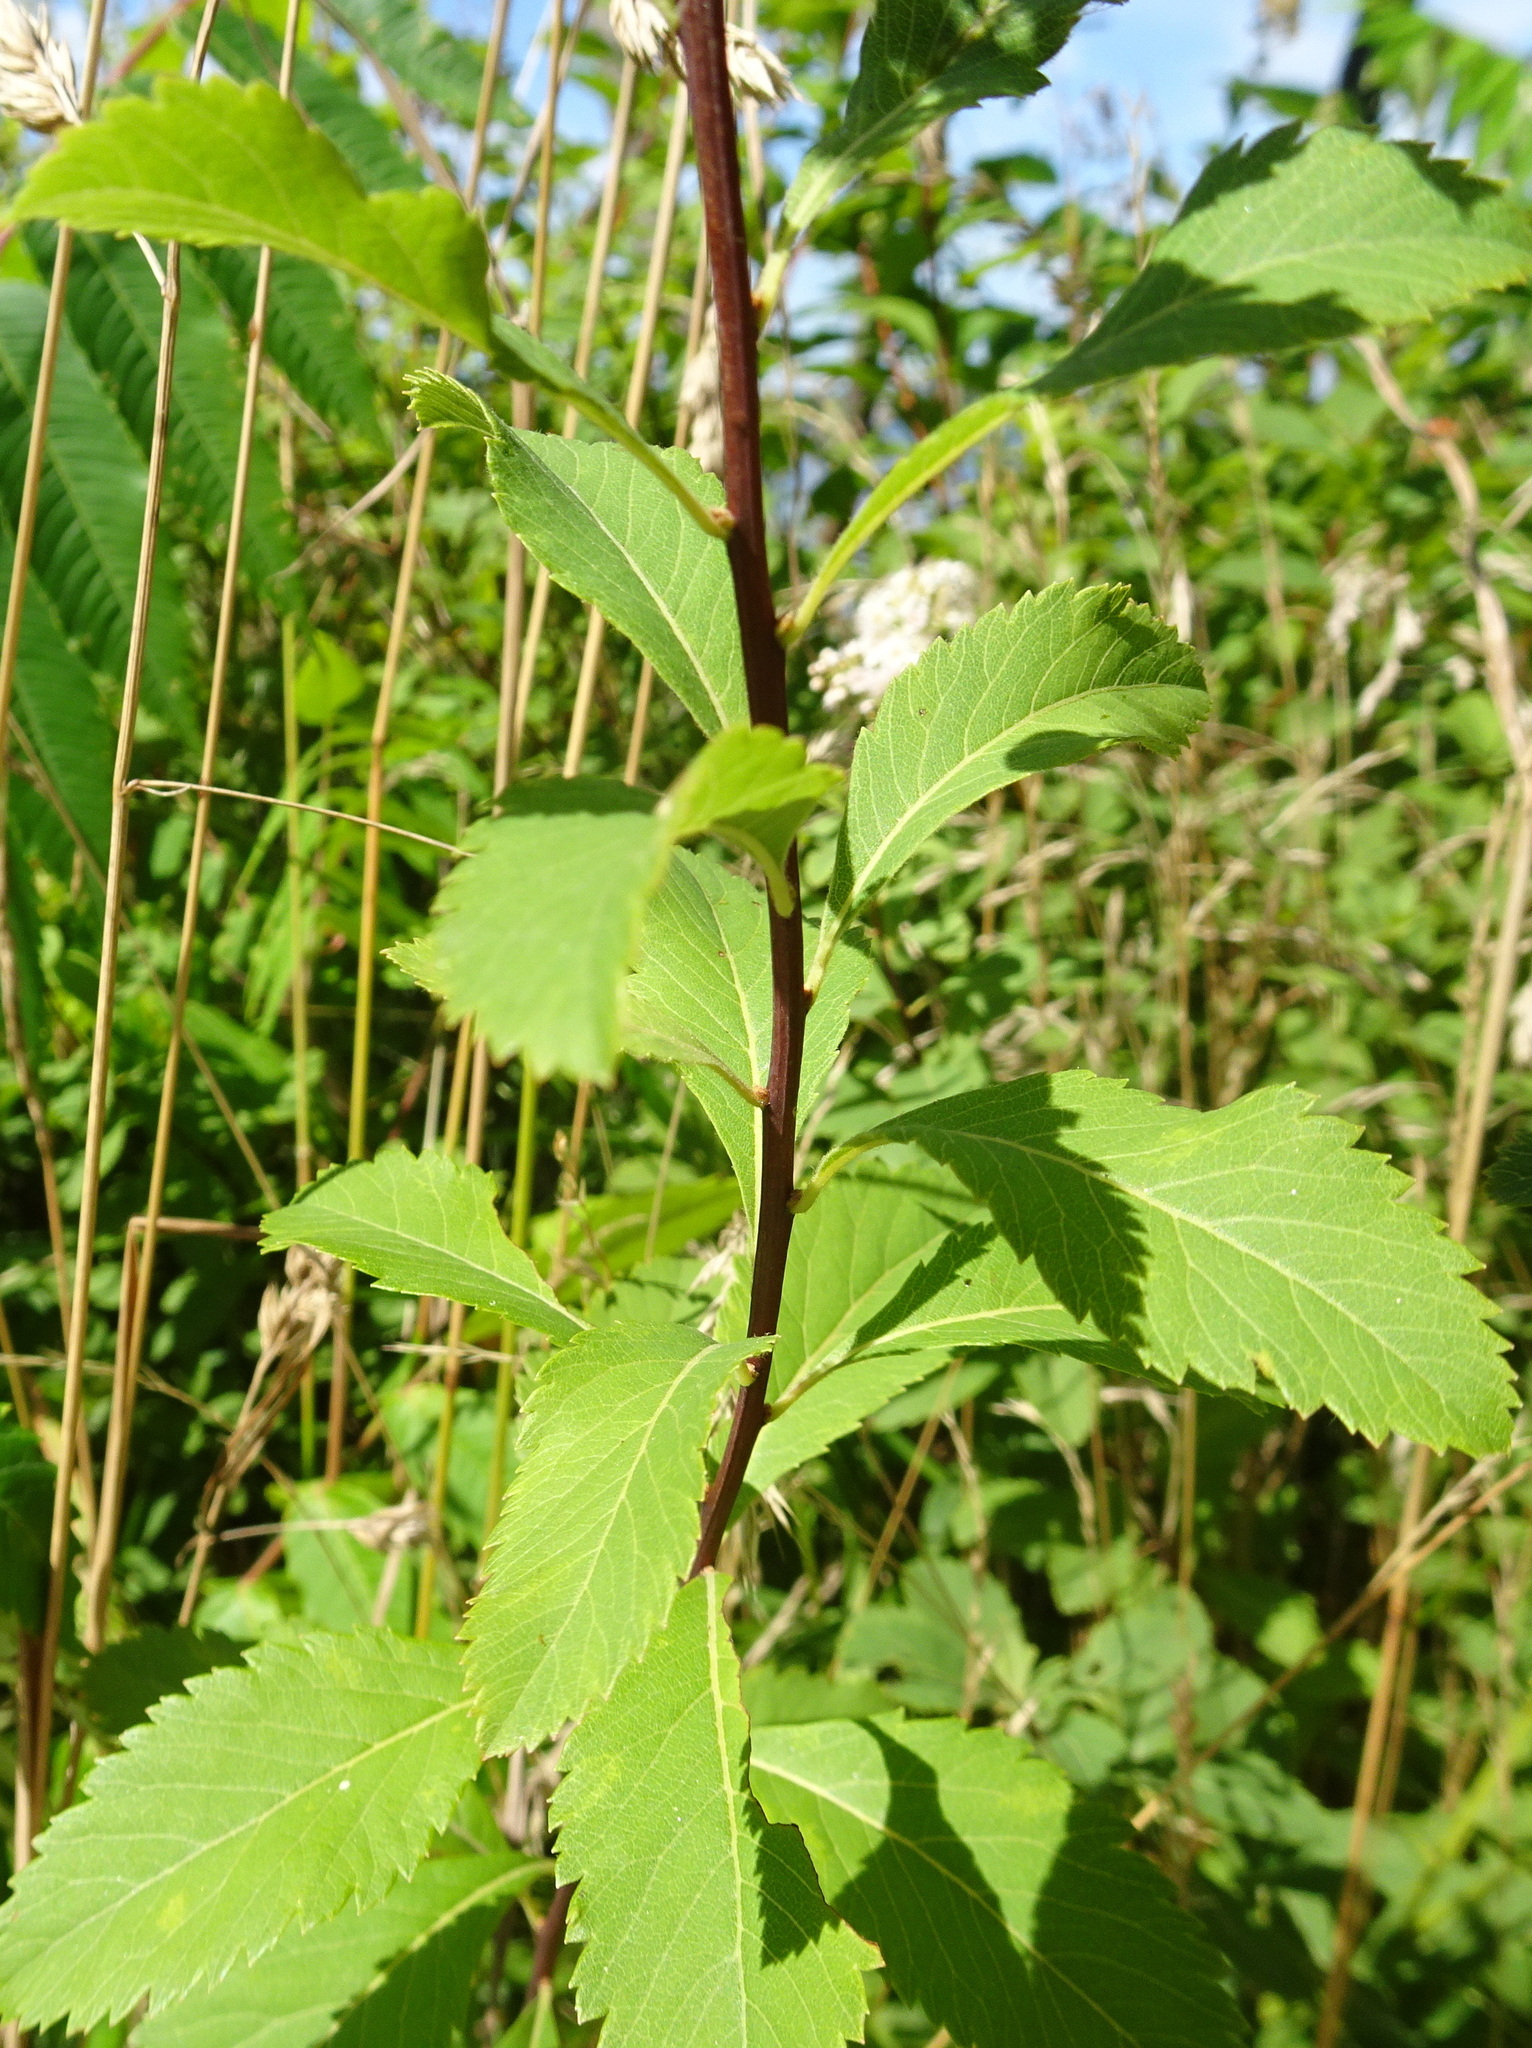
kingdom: Plantae
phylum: Tracheophyta
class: Magnoliopsida
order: Rosales
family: Rosaceae
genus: Spiraea
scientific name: Spiraea alba
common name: Pale bridewort
